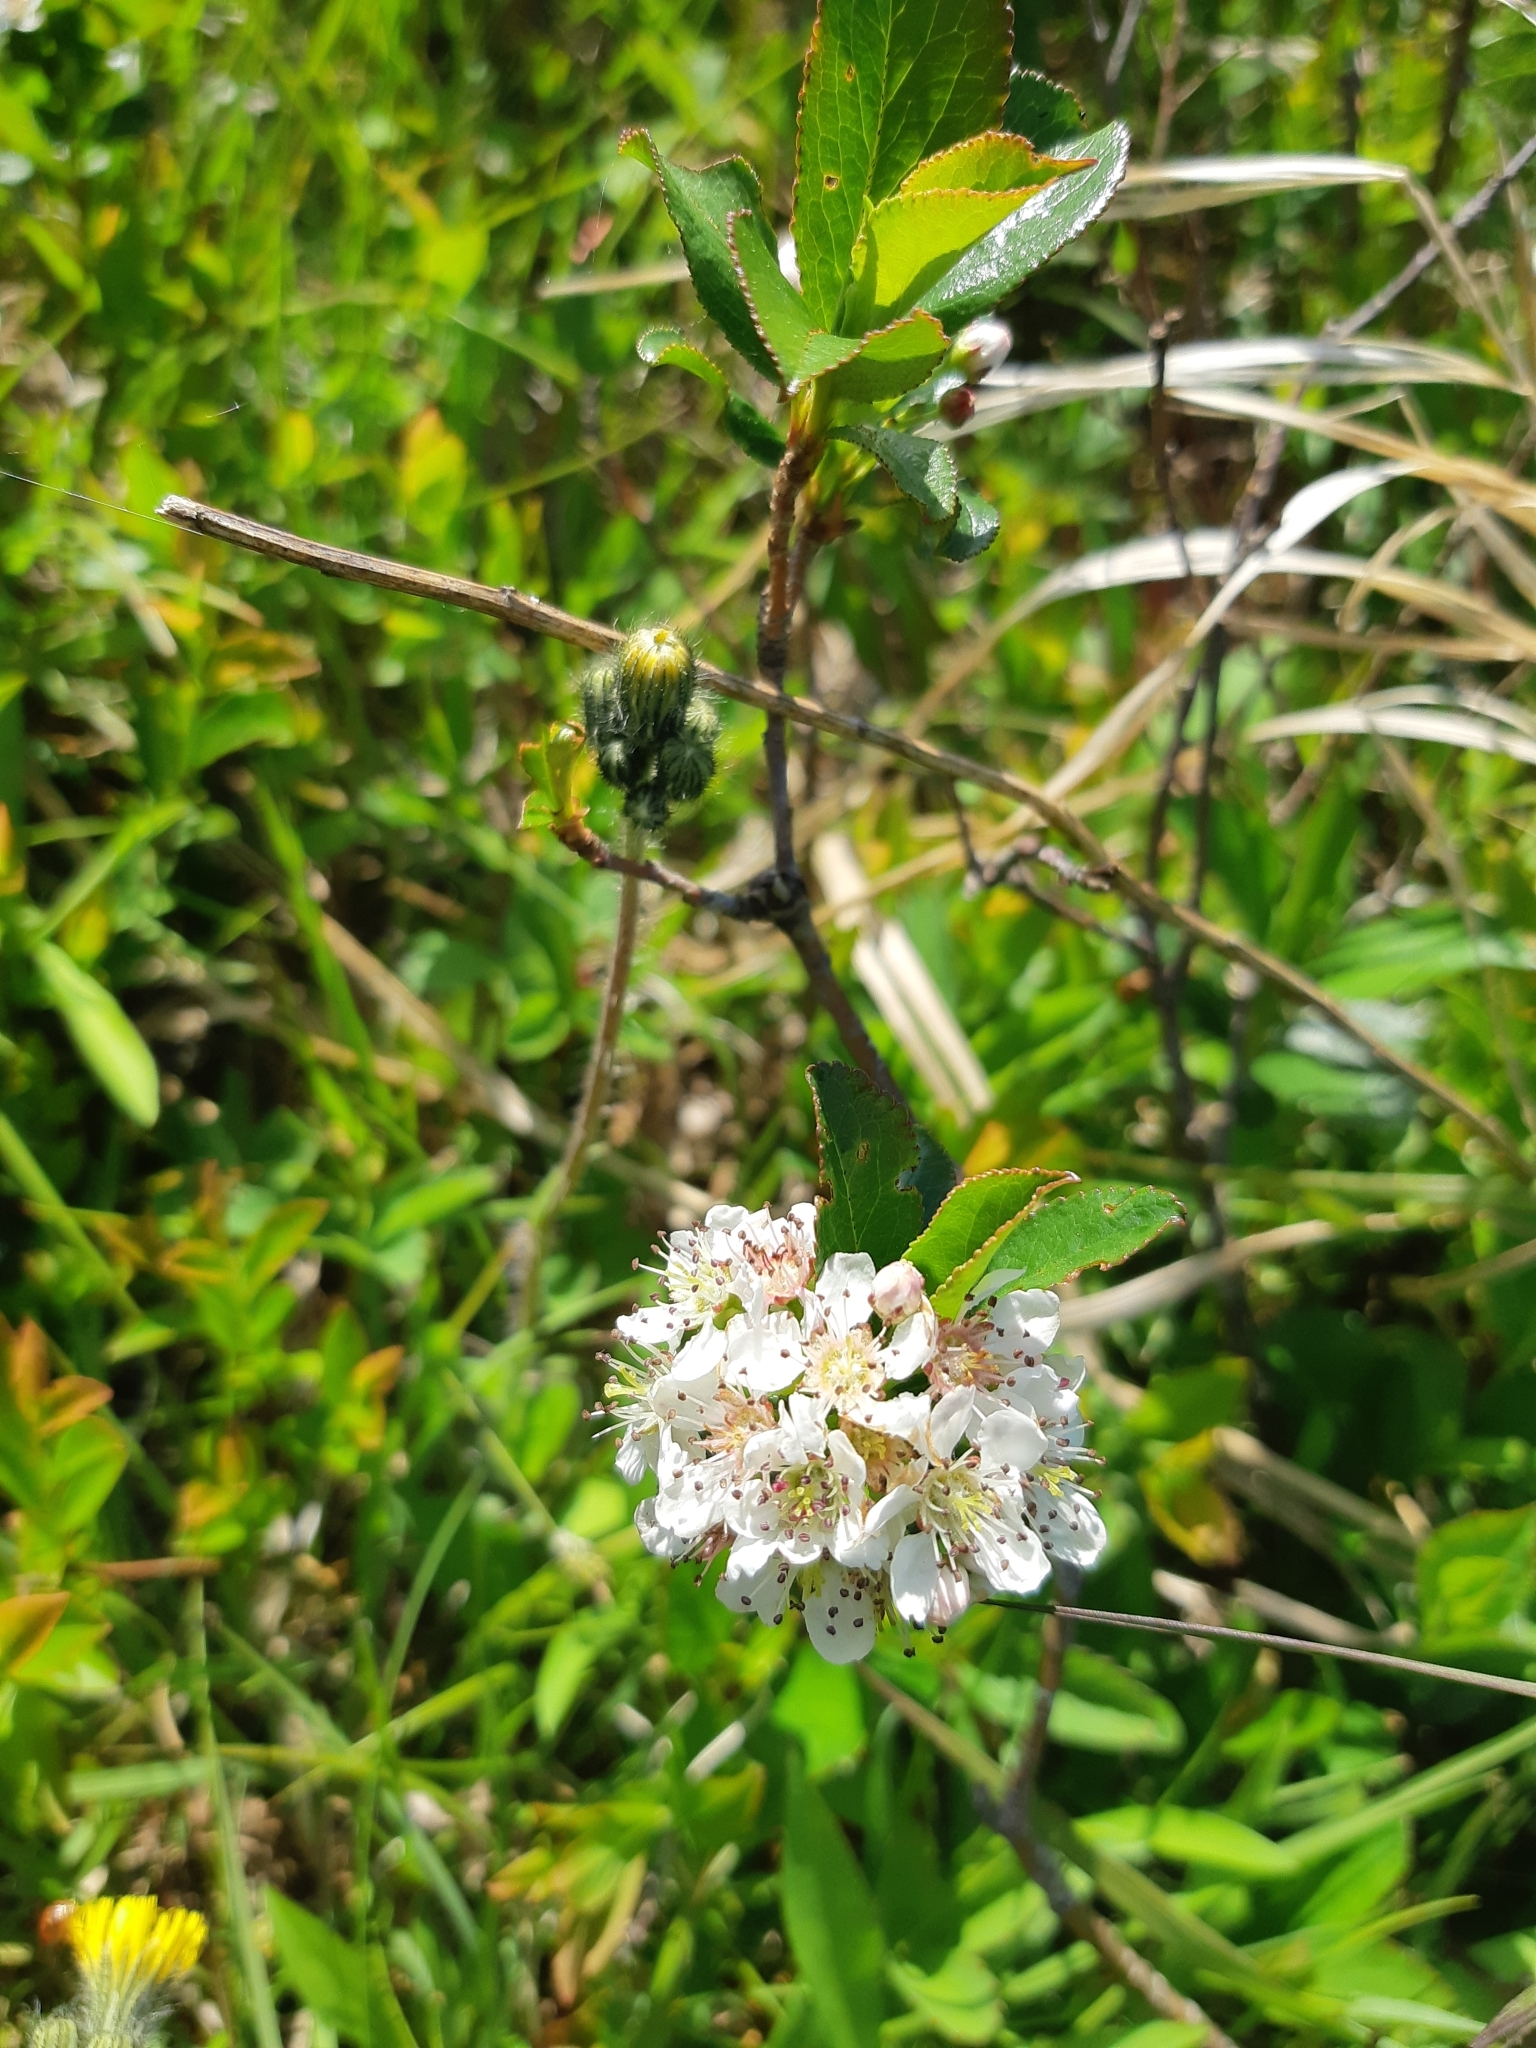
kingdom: Plantae
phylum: Tracheophyta
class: Magnoliopsida
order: Rosales
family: Rosaceae
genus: Aronia
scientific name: Aronia melanocarpa
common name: Black chokeberry
